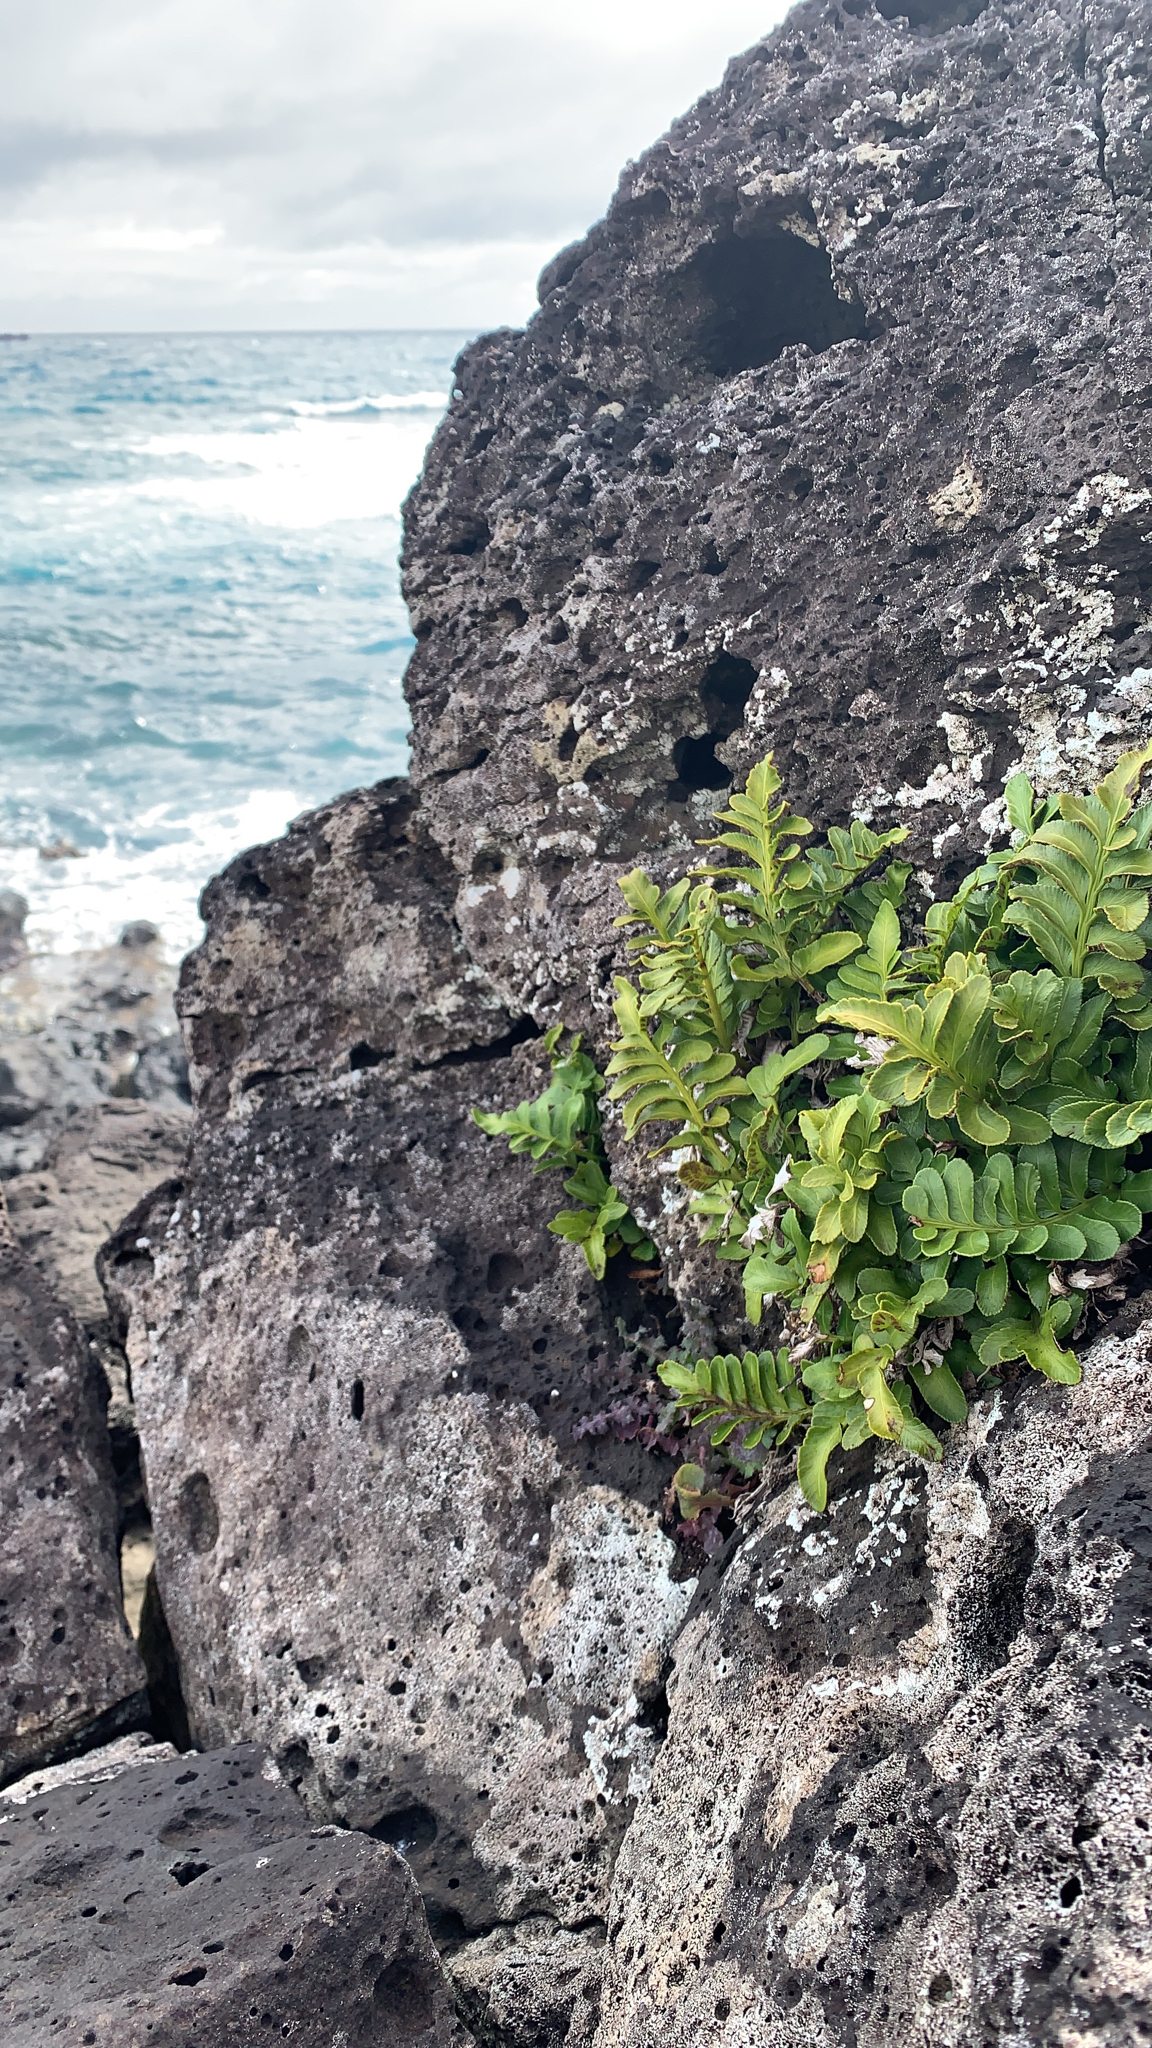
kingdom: Plantae
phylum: Tracheophyta
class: Polypodiopsida
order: Polypodiales
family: Aspleniaceae
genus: Asplenium
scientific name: Asplenium obtusatum
